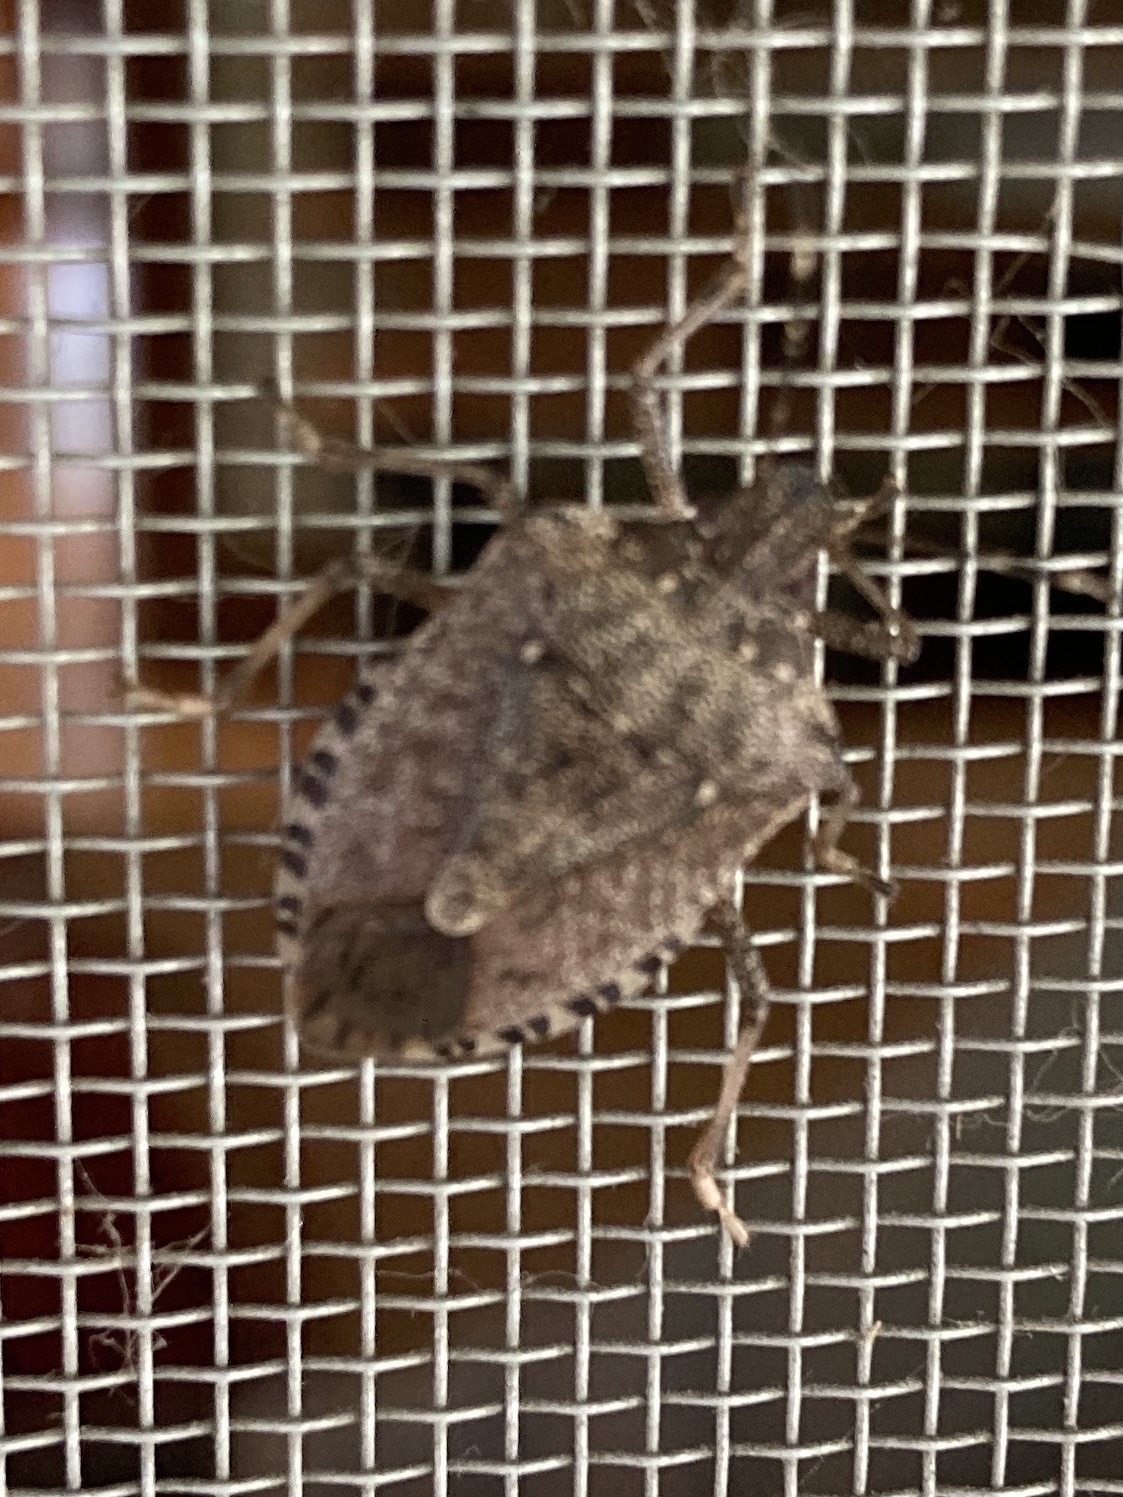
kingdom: Animalia
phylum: Arthropoda
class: Insecta
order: Hemiptera
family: Pentatomidae
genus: Halyomorpha
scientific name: Halyomorpha halys
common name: Brown marmorated stink bug
